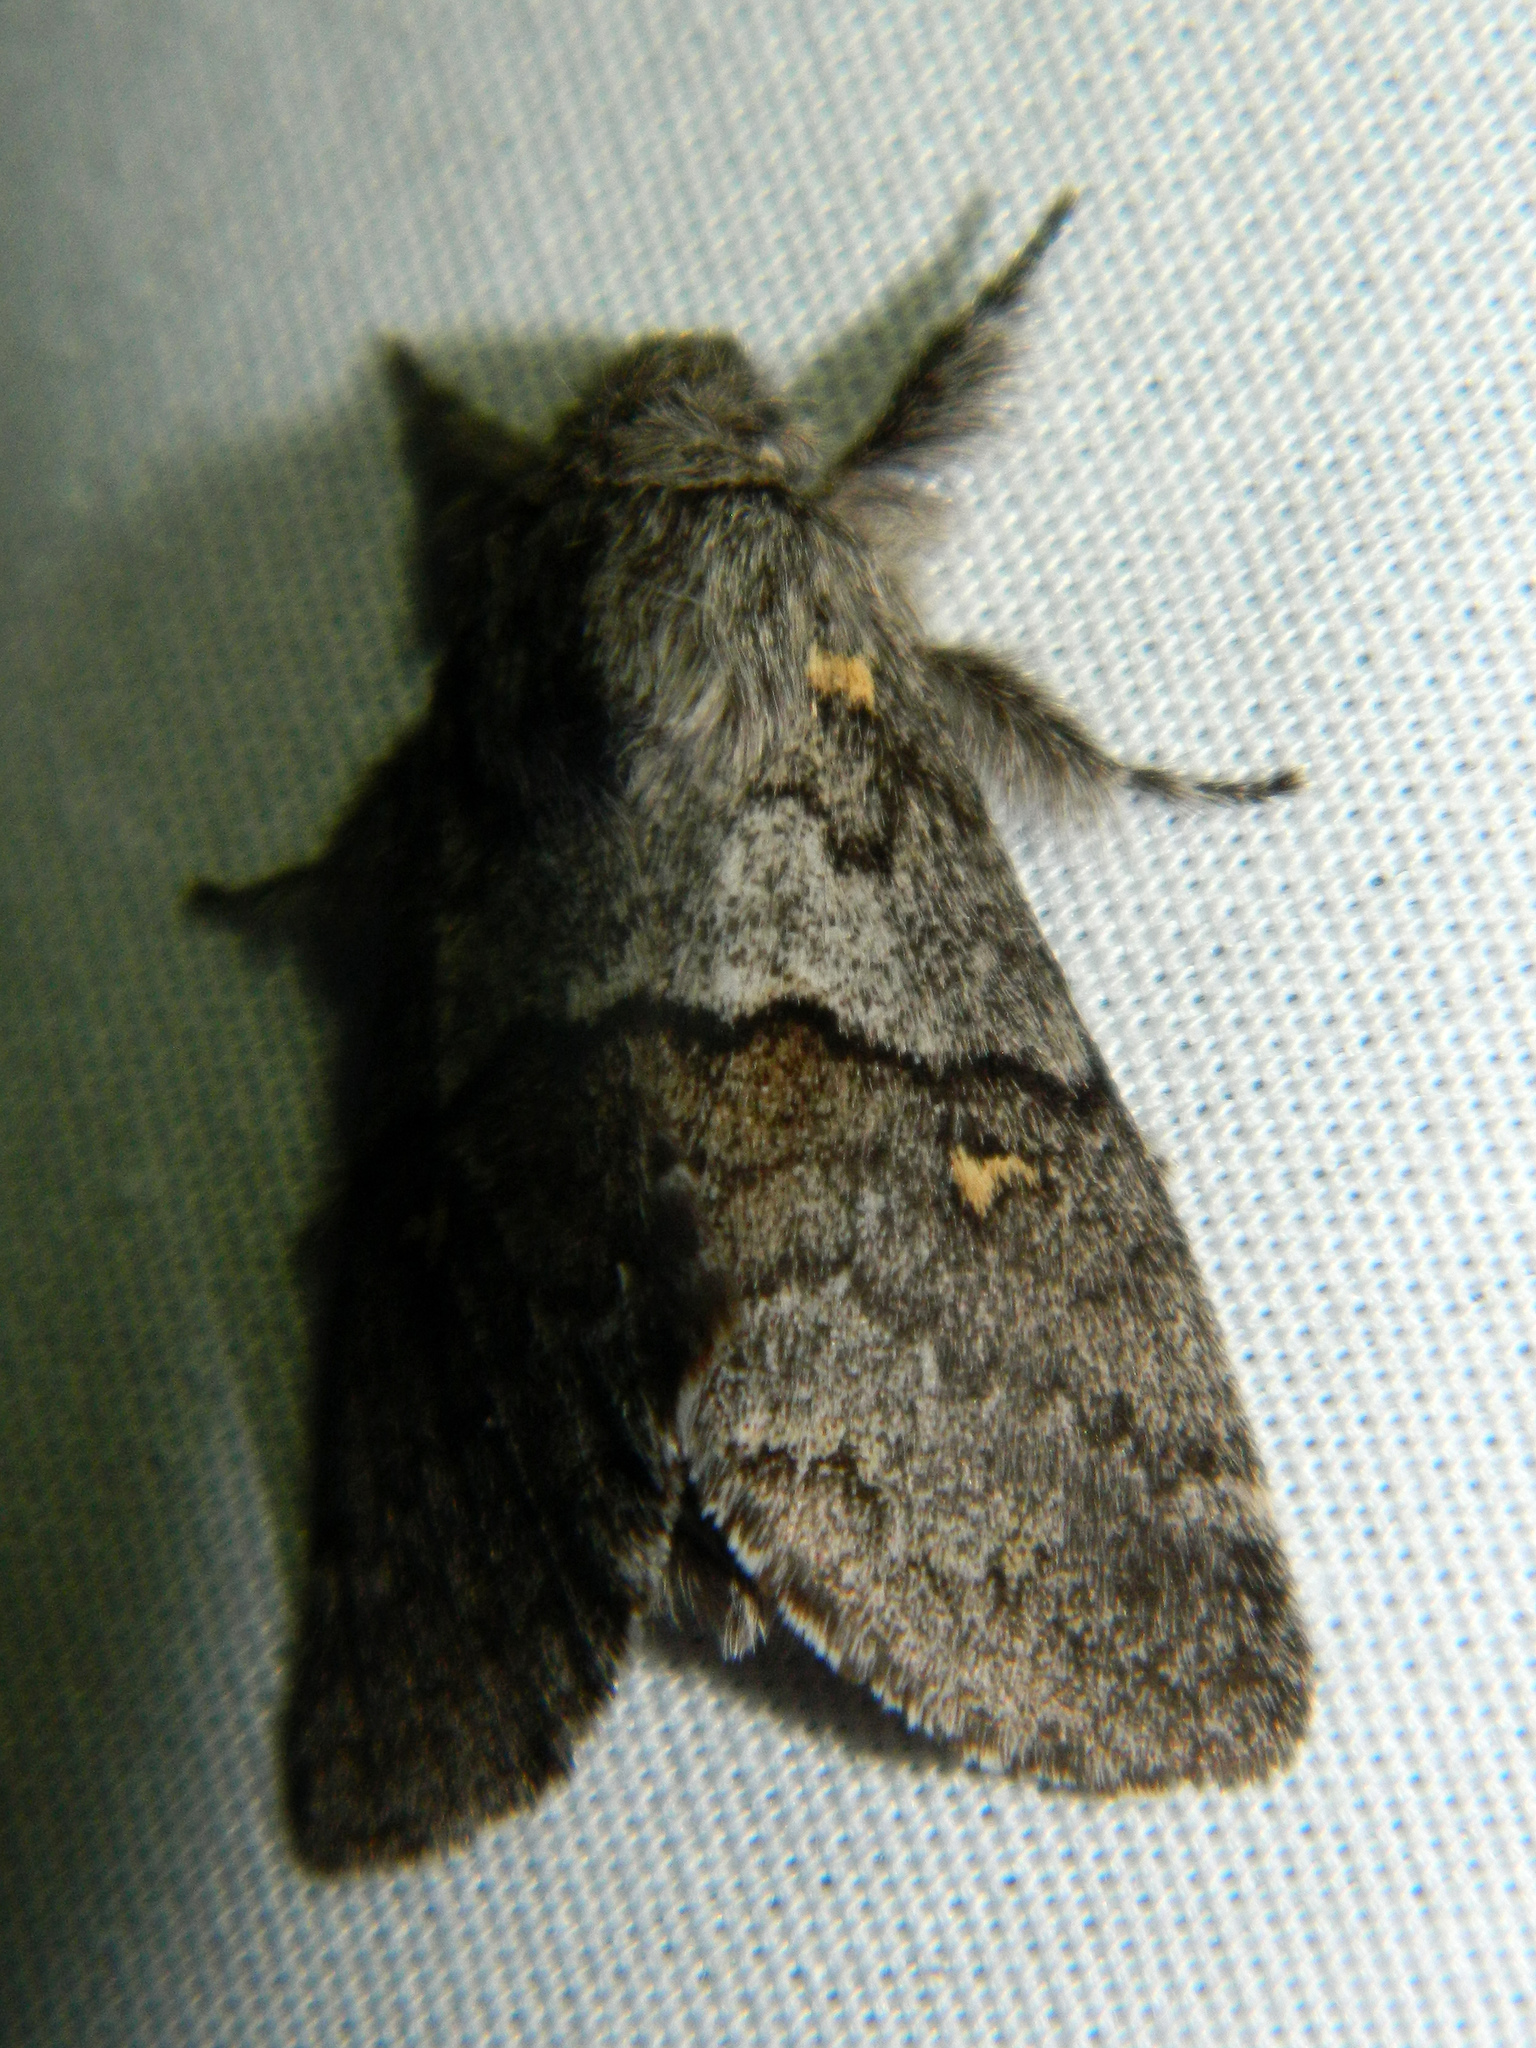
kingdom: Animalia
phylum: Arthropoda
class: Insecta
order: Lepidoptera
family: Notodontidae
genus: Gluphisia
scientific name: Gluphisia avimacula
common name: Four-spotted gluphisia moth
